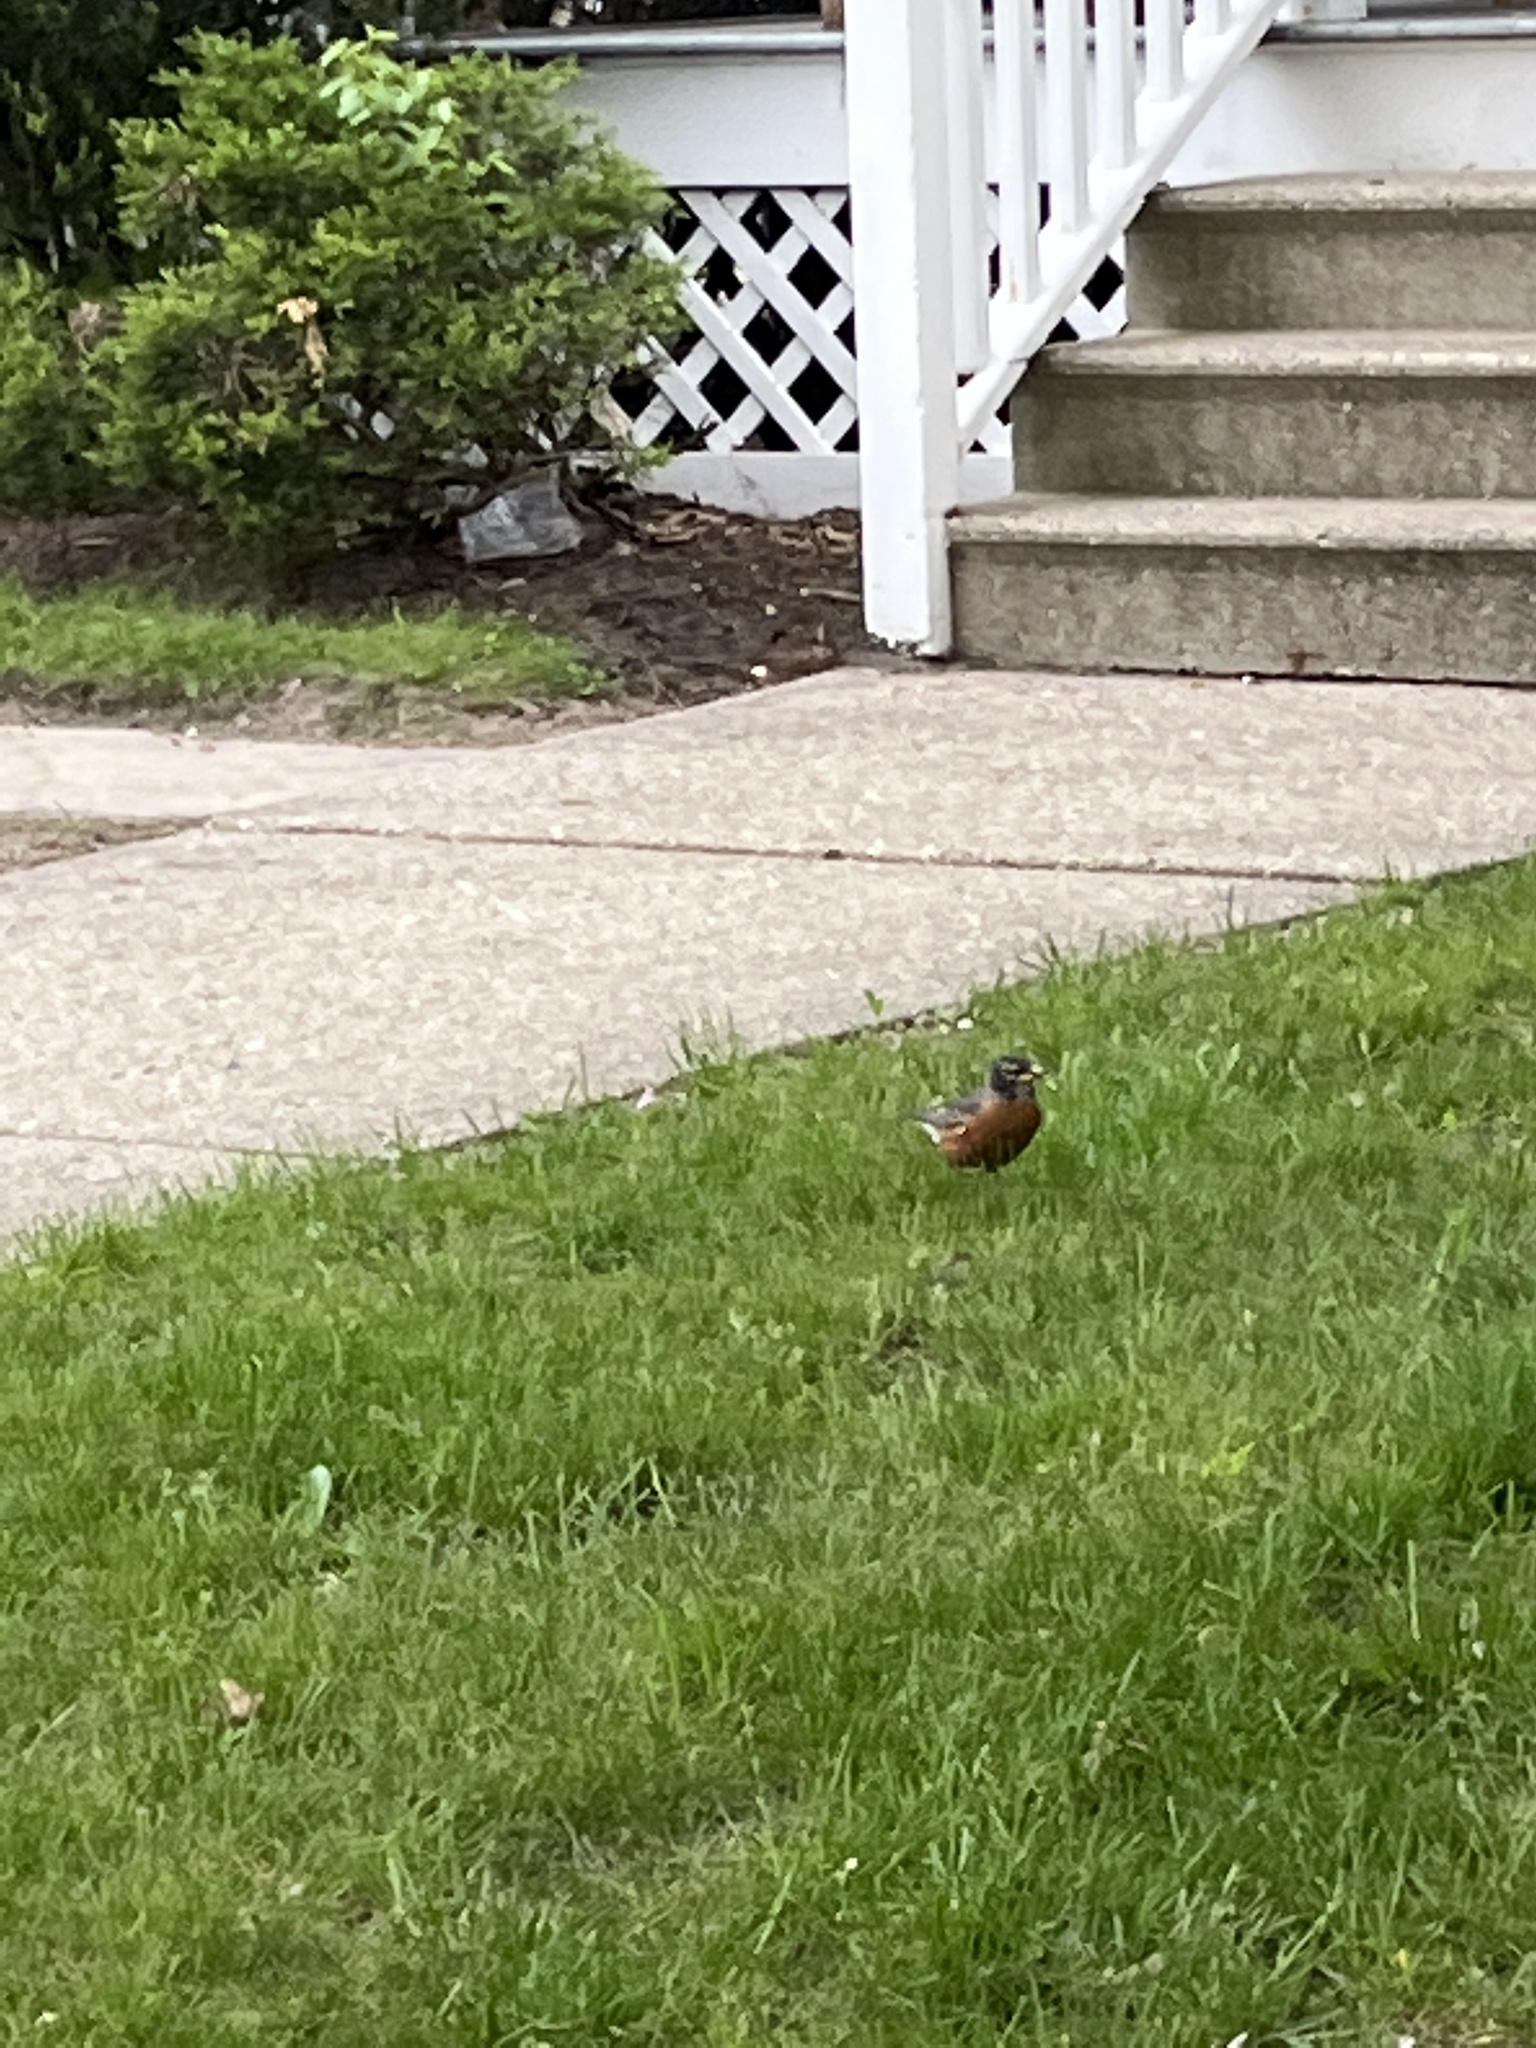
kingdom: Animalia
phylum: Chordata
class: Aves
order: Passeriformes
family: Turdidae
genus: Turdus
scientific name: Turdus migratorius
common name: American robin
